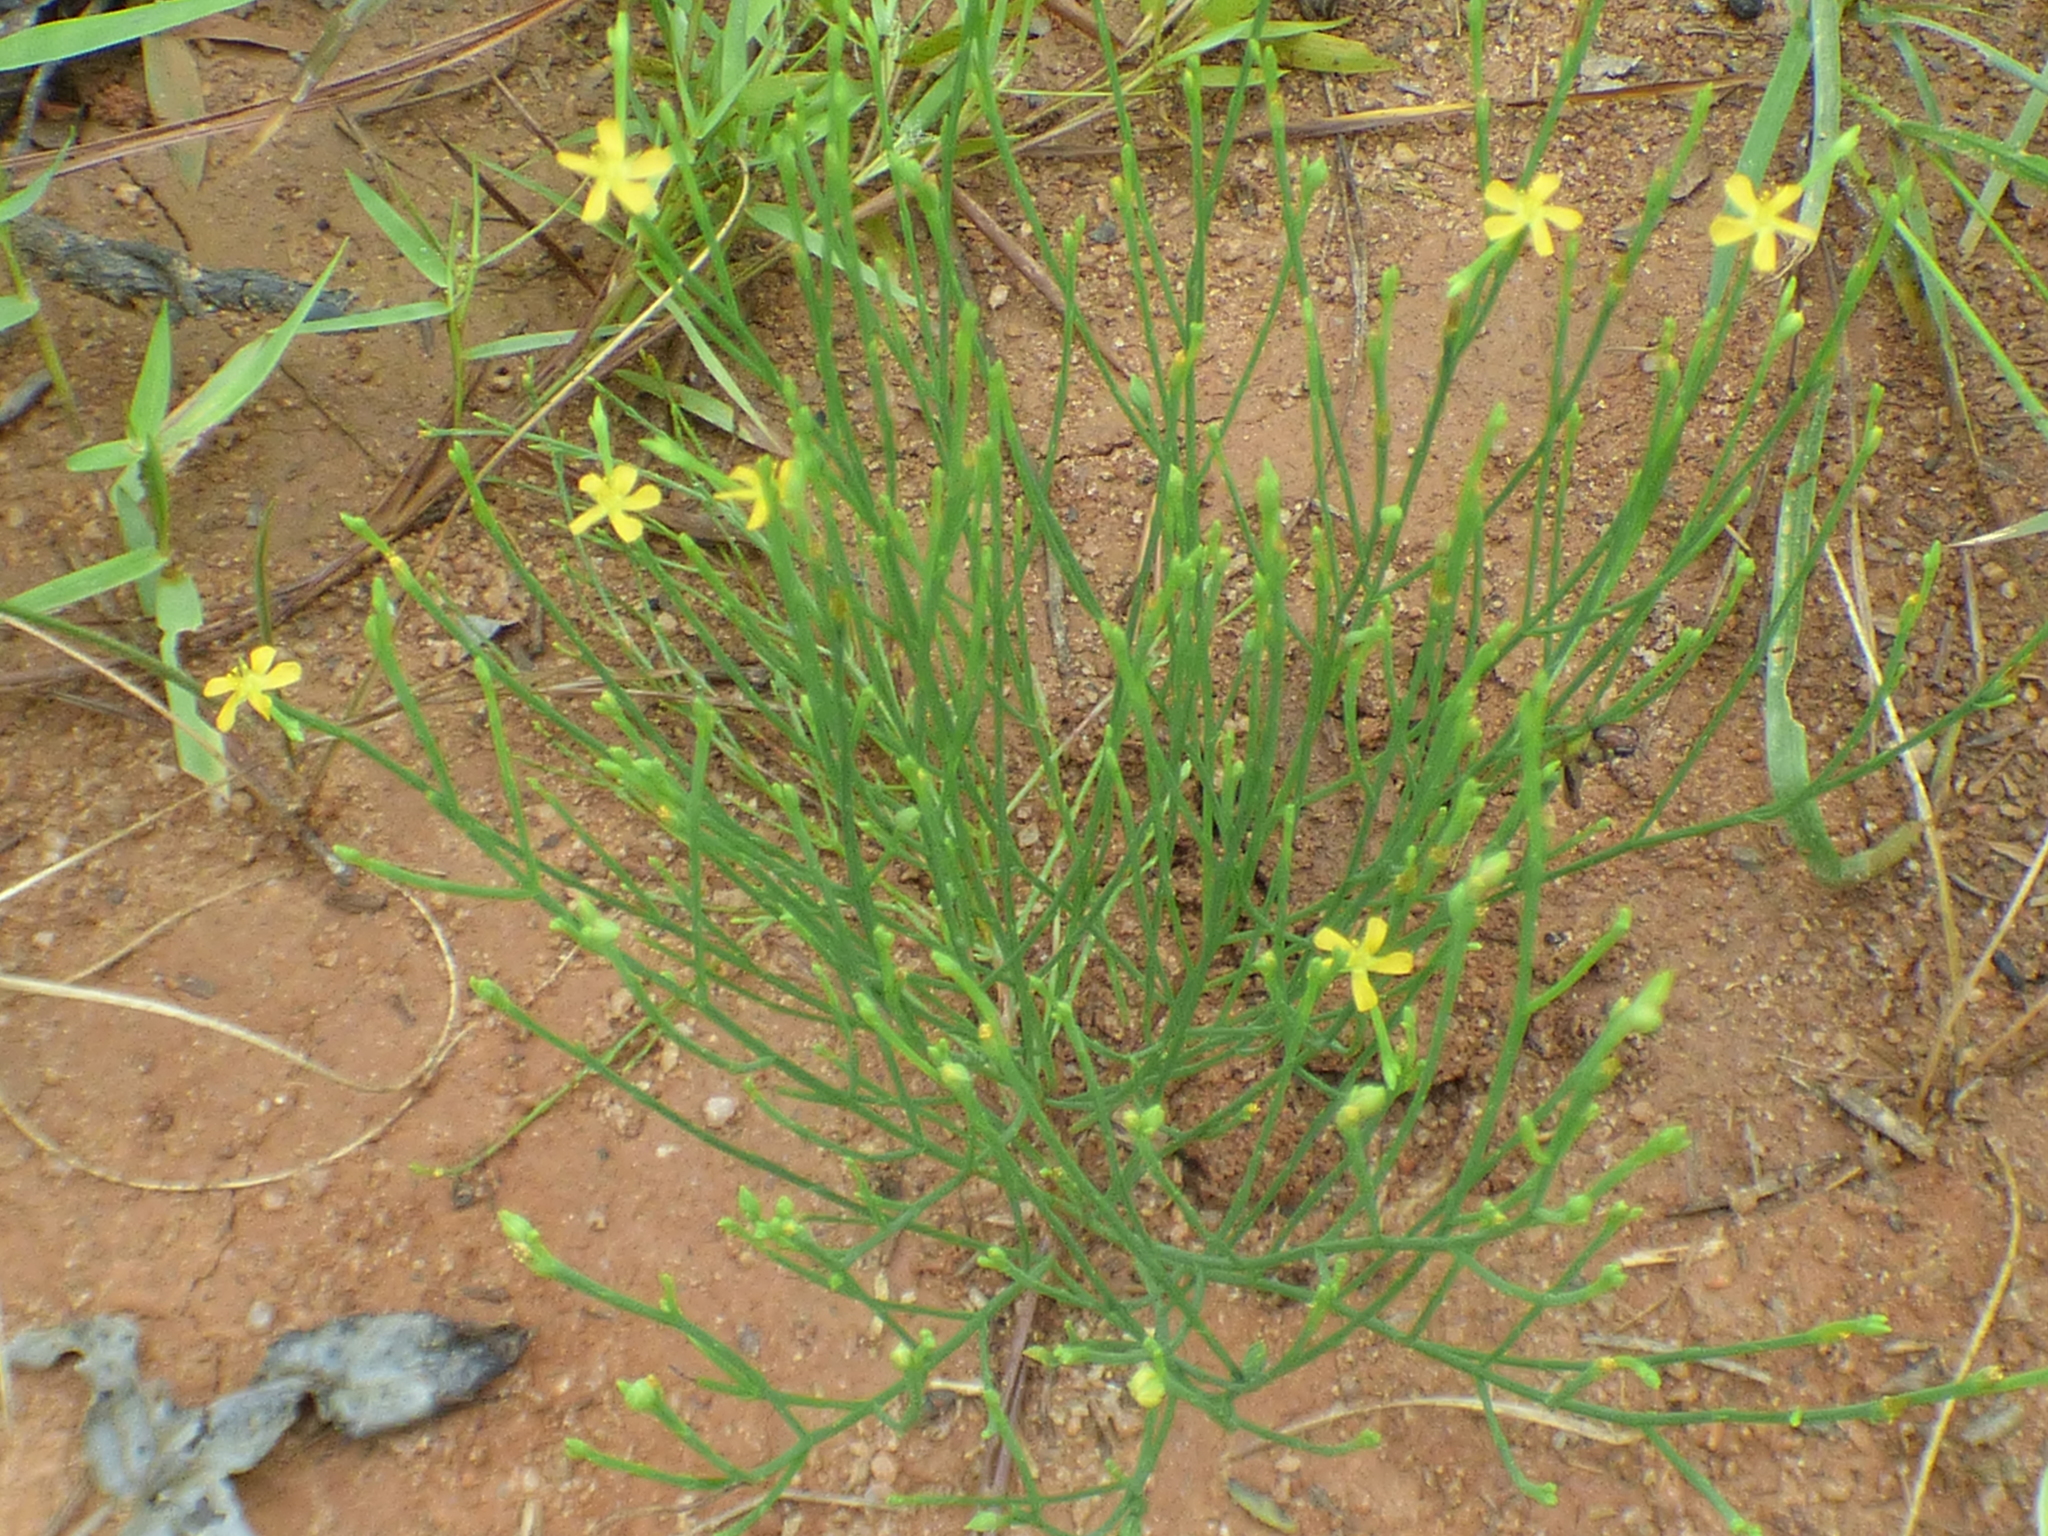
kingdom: Plantae
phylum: Tracheophyta
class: Magnoliopsida
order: Malpighiales
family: Hypericaceae
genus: Hypericum
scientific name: Hypericum gentianoides
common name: Gentian-leaved st. john's-wort
